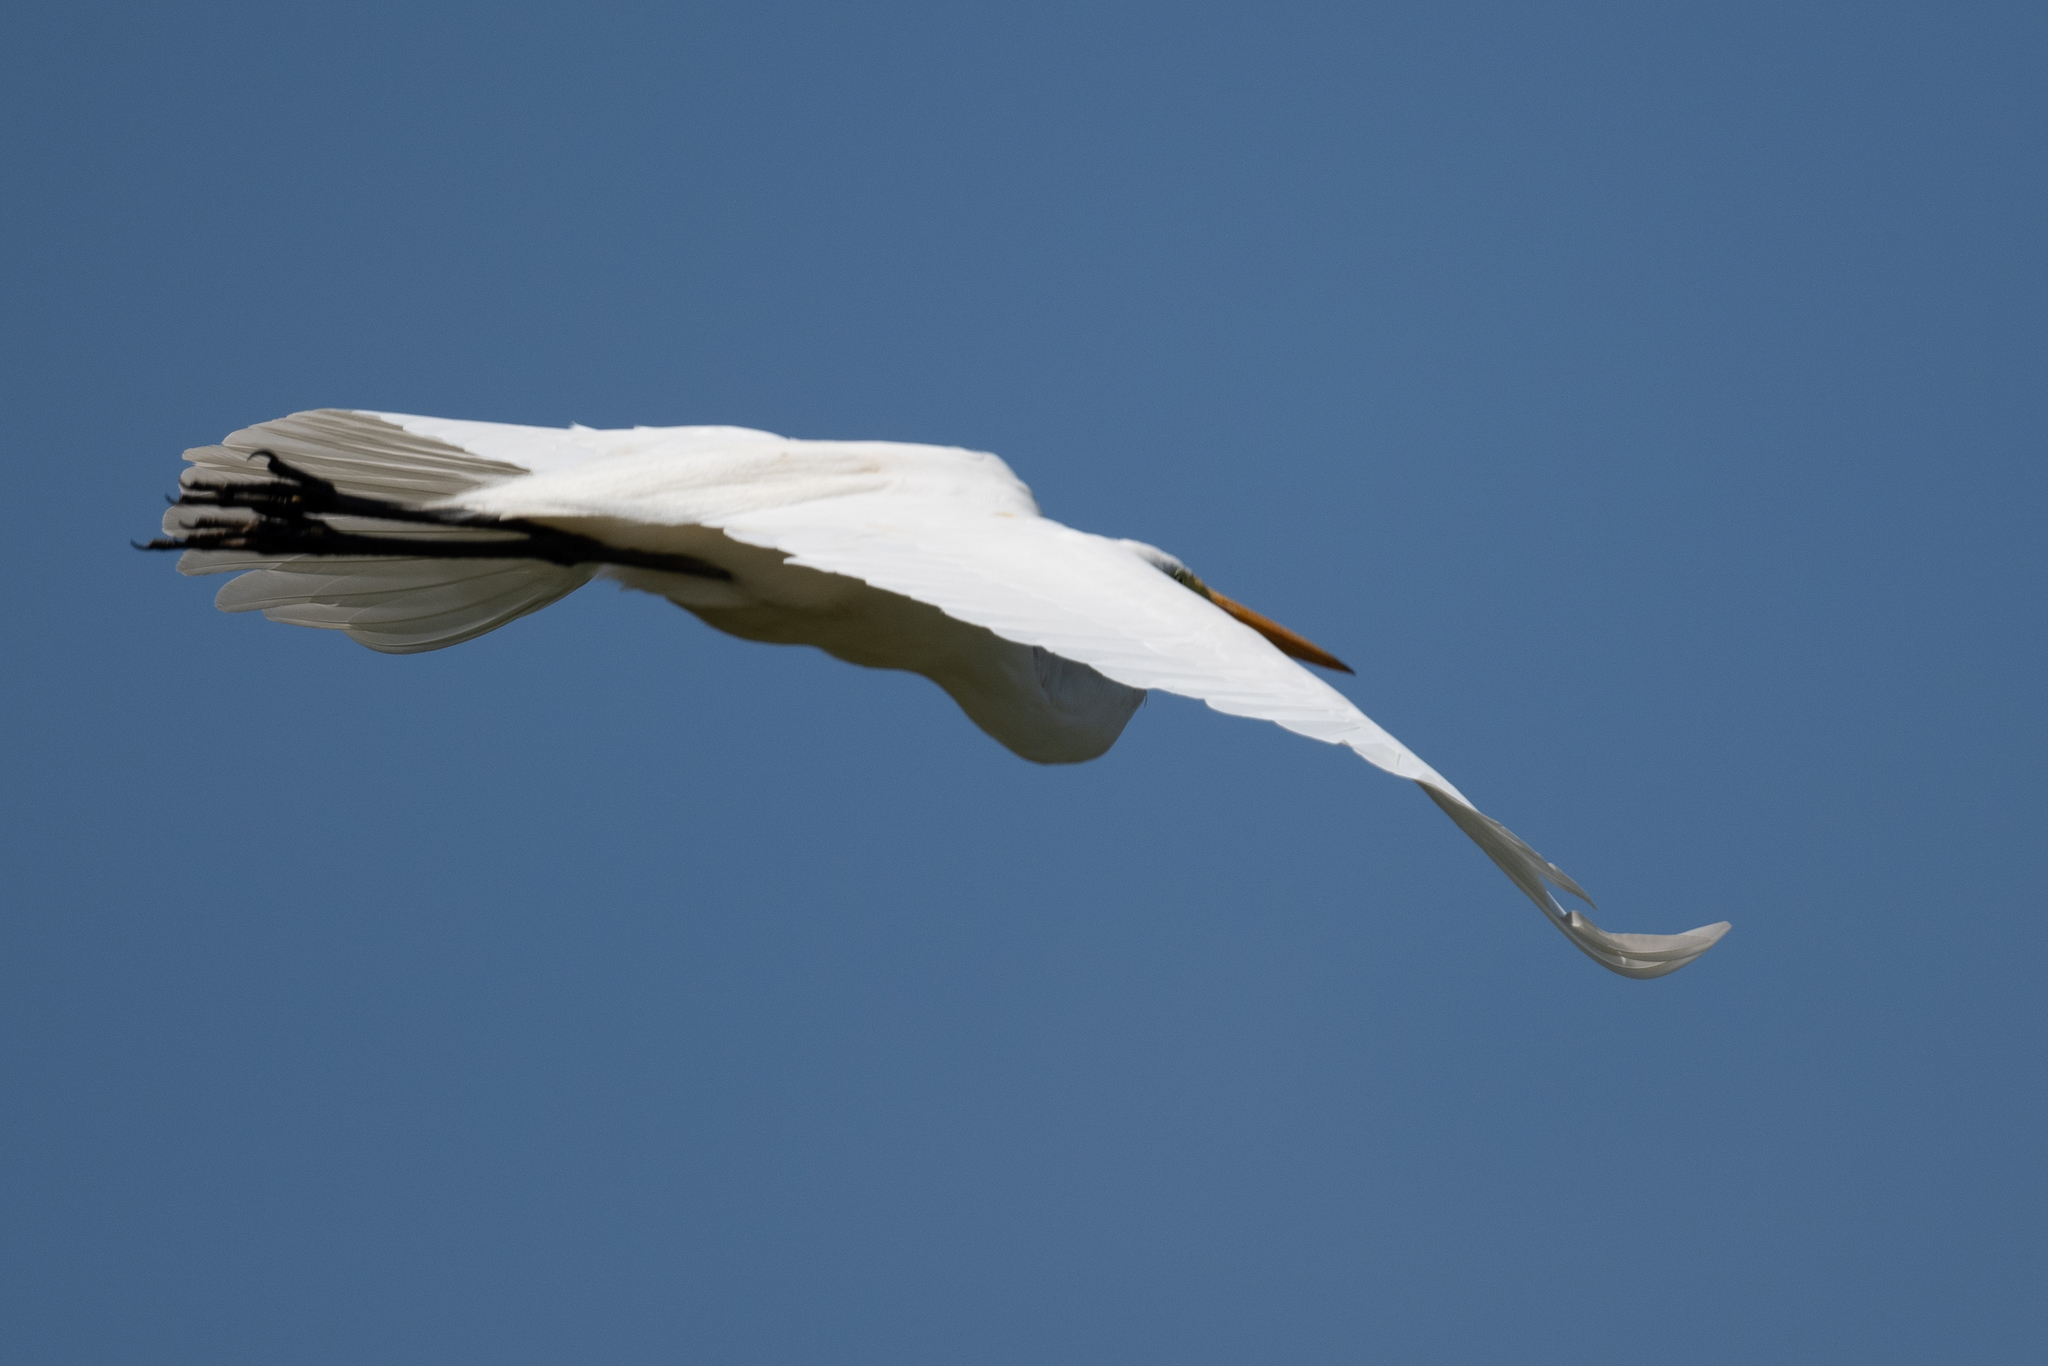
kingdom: Animalia
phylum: Chordata
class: Aves
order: Pelecaniformes
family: Ardeidae
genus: Ardea
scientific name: Ardea alba
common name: Great egret
